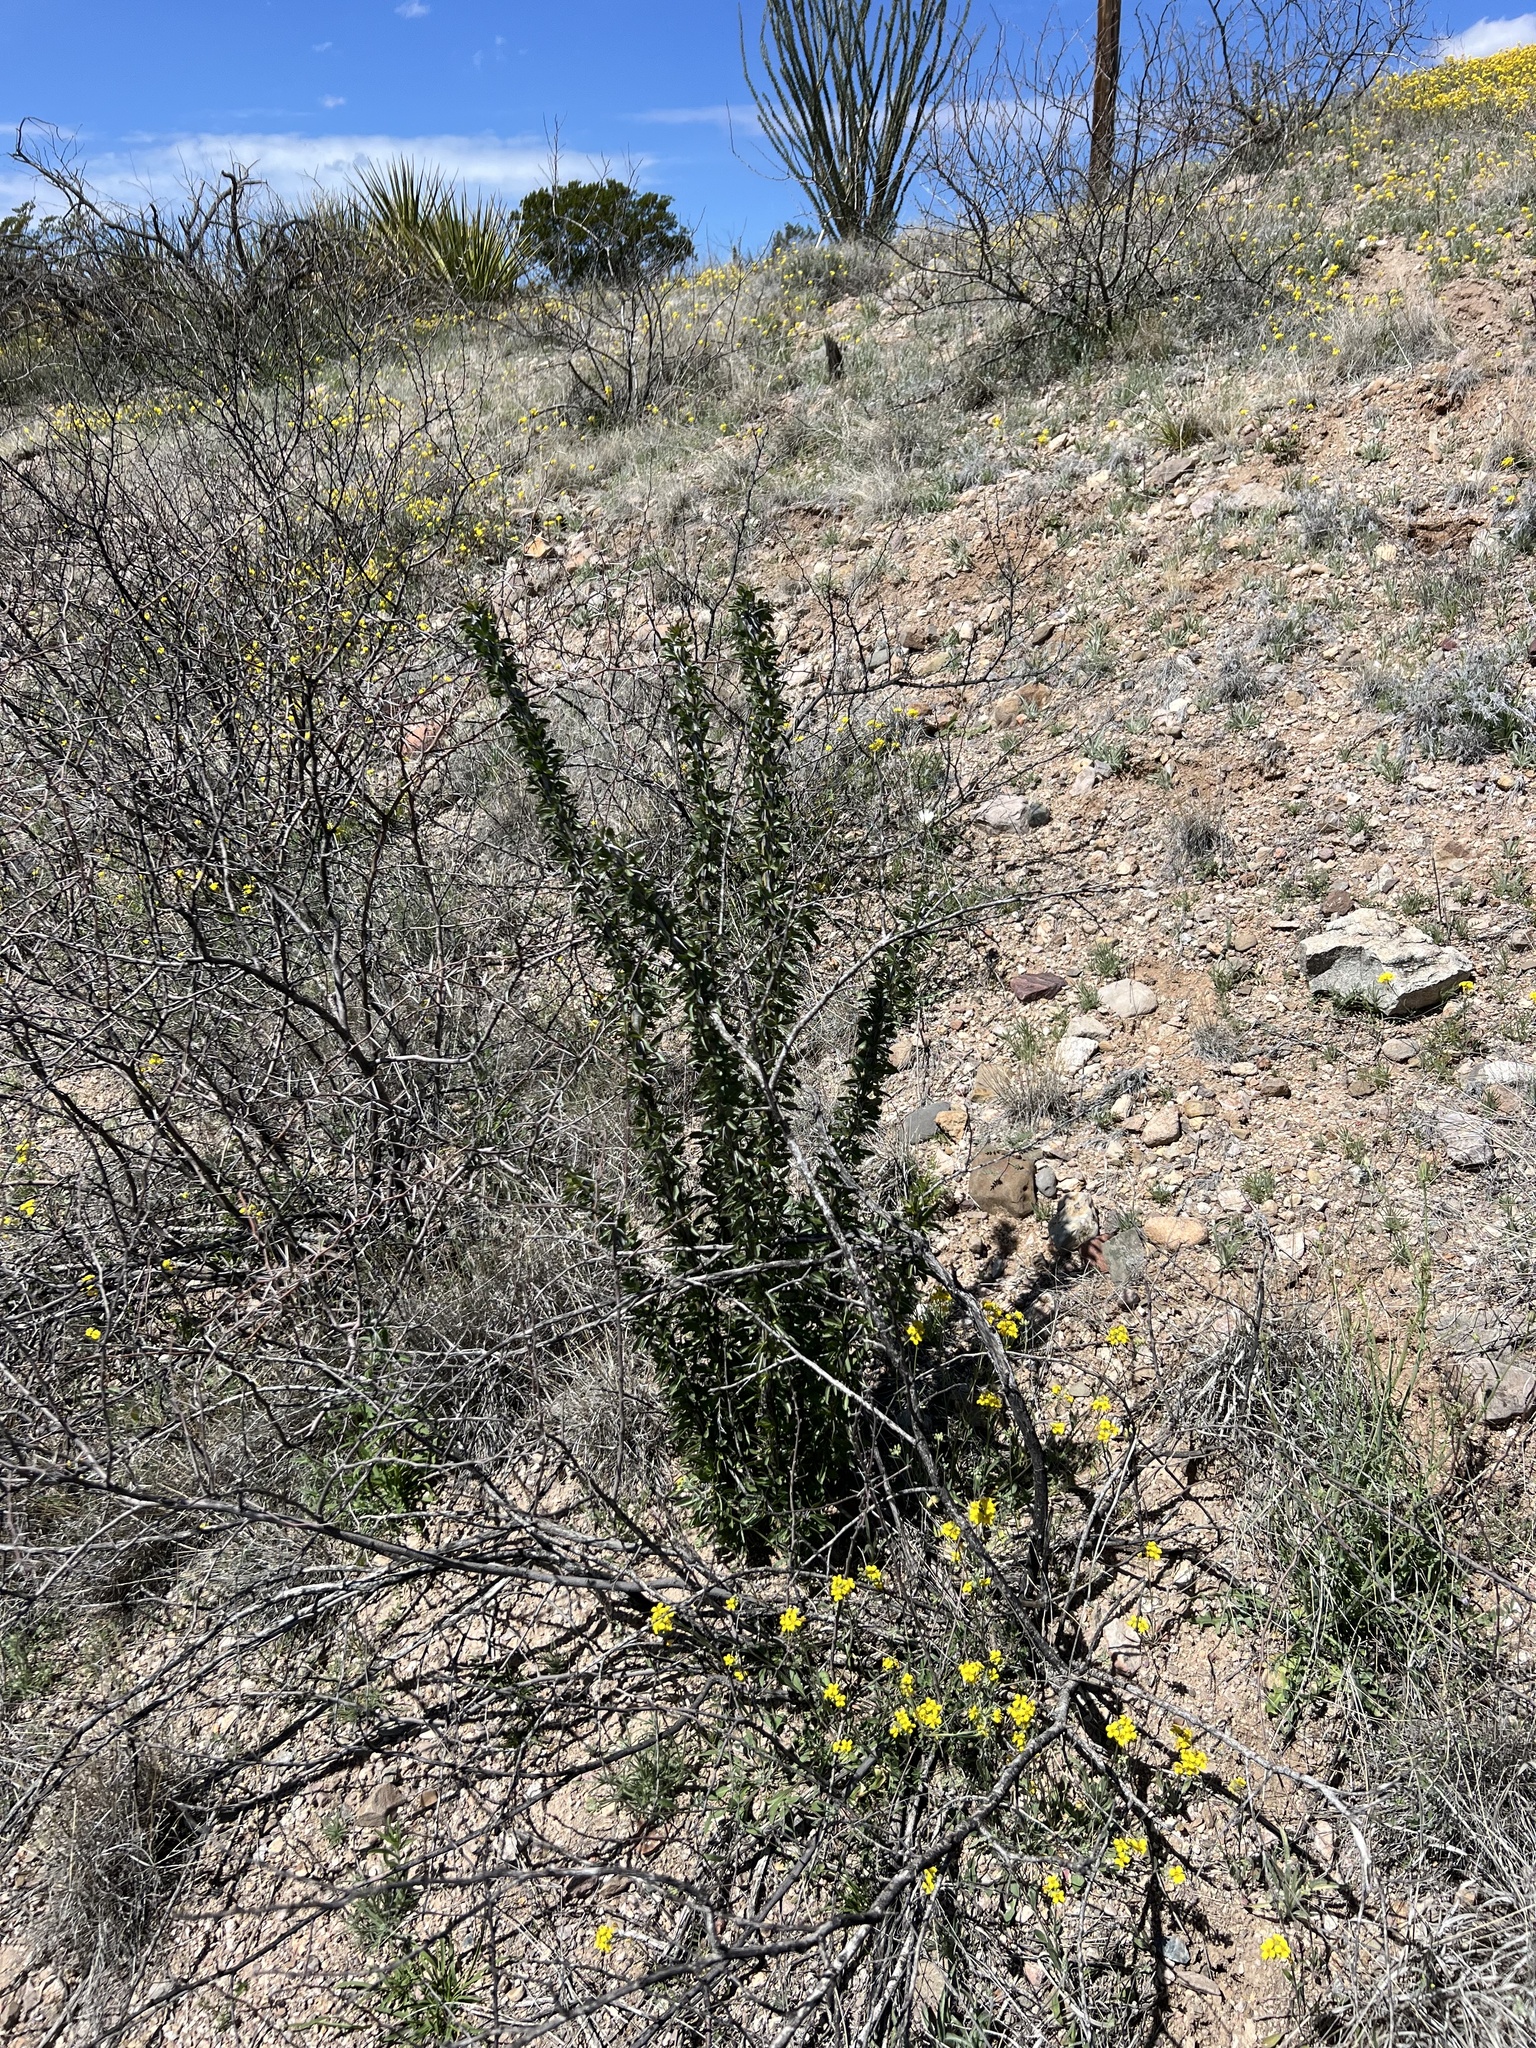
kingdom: Plantae
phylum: Tracheophyta
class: Magnoliopsida
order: Ericales
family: Fouquieriaceae
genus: Fouquieria
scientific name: Fouquieria splendens
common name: Vine-cactus
